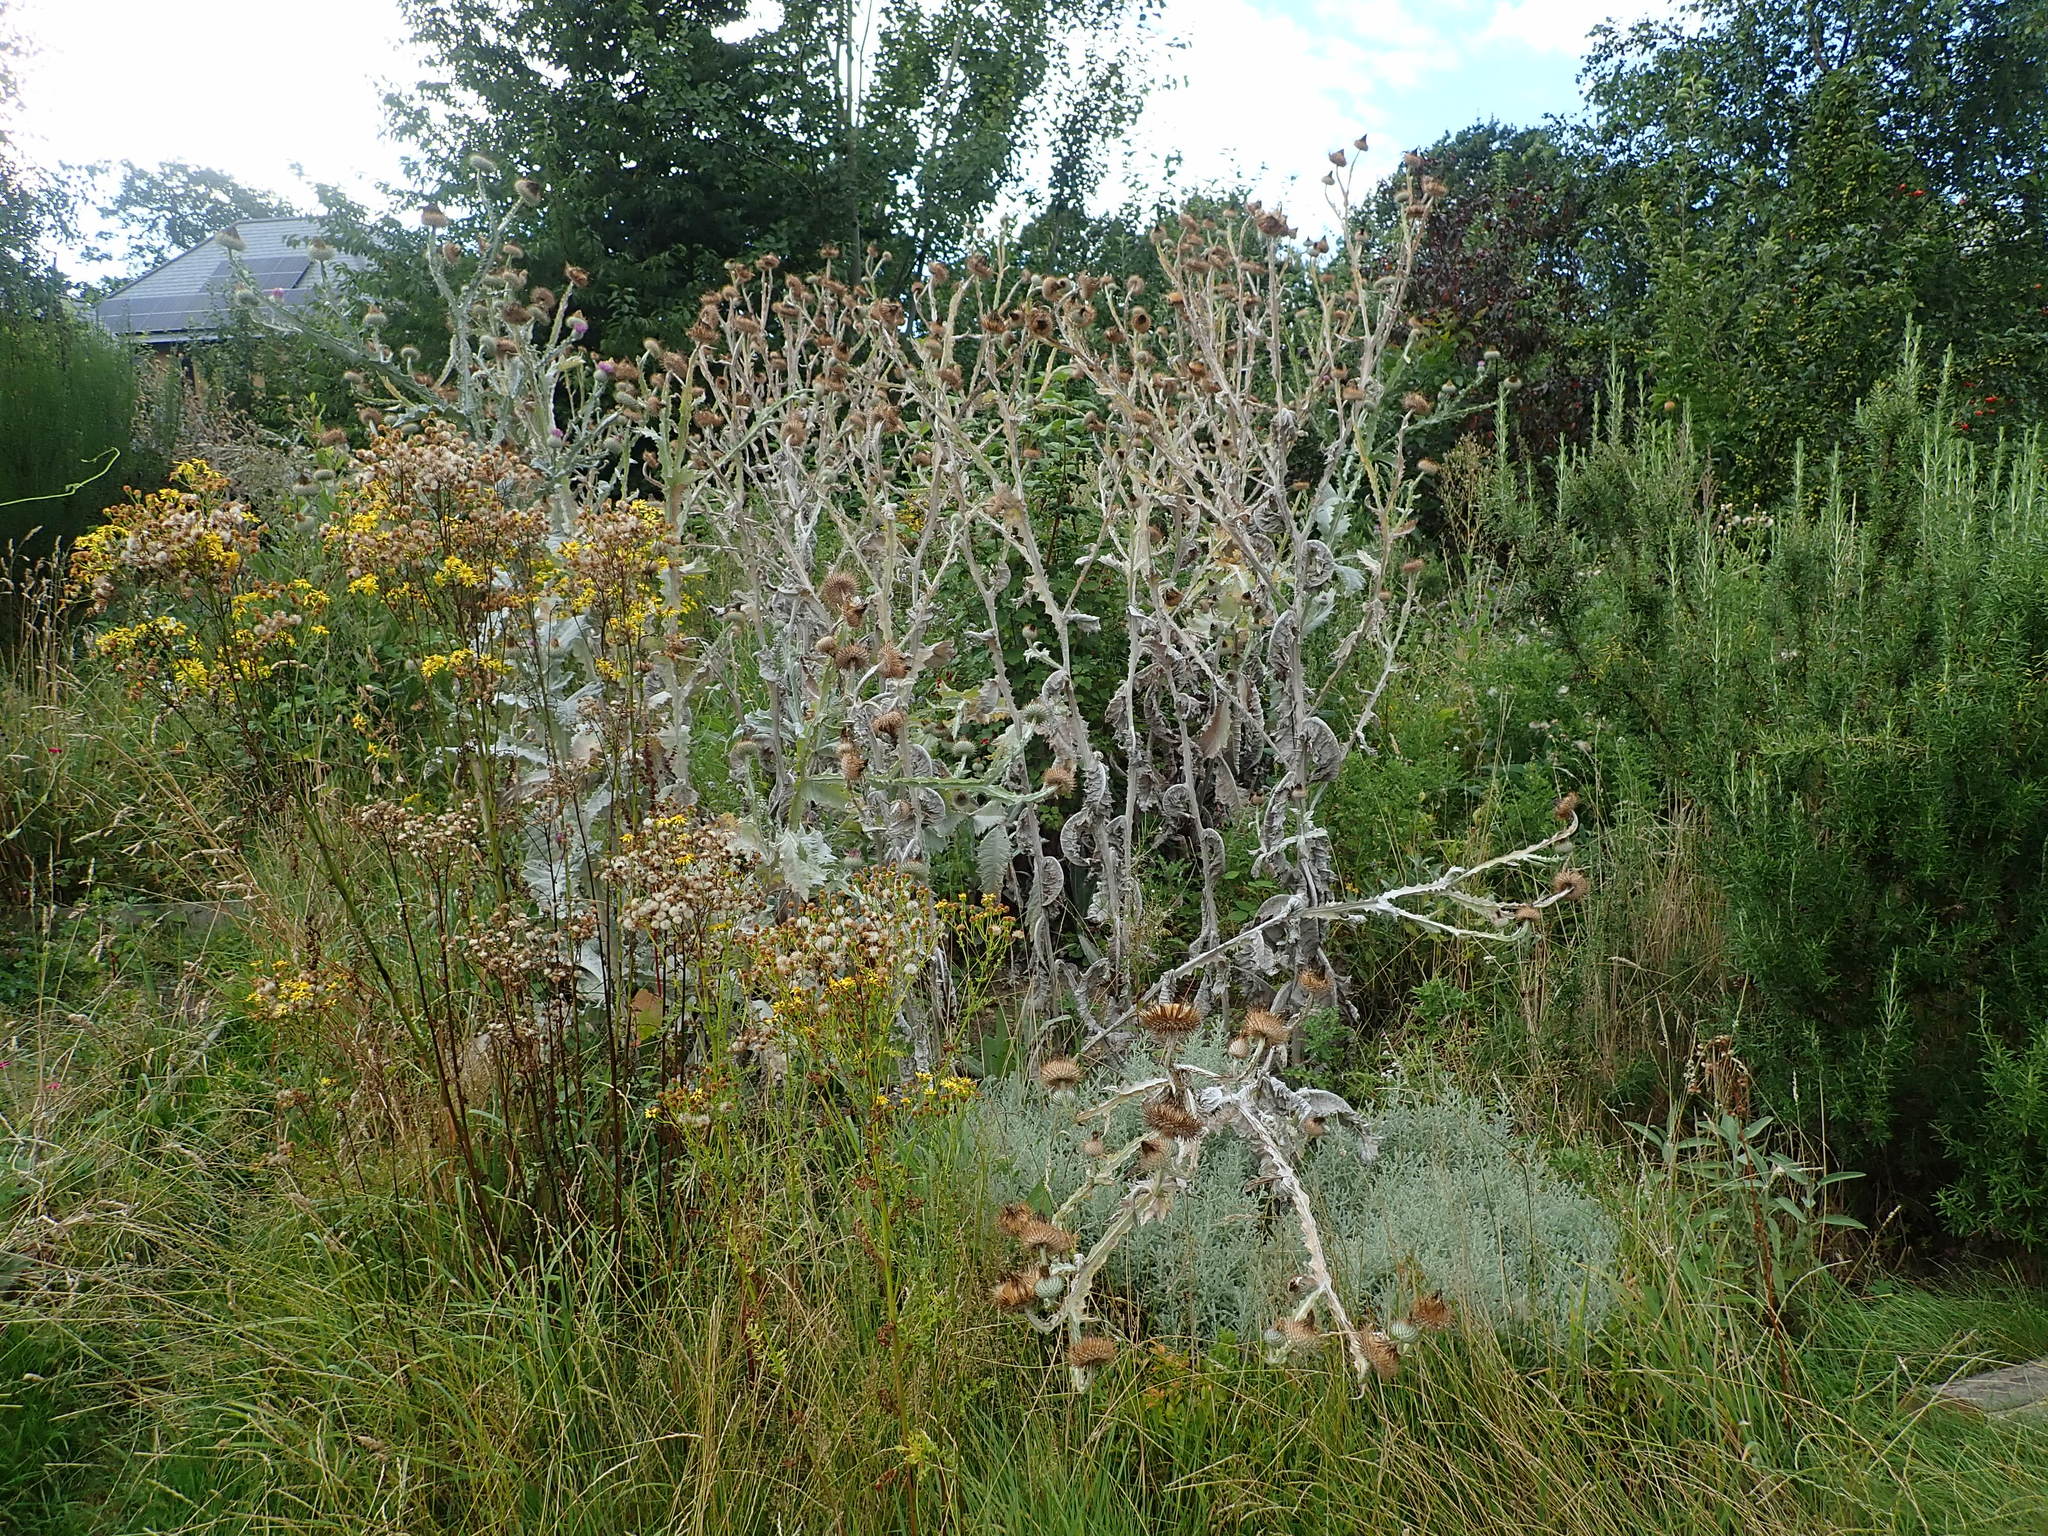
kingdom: Plantae
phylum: Tracheophyta
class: Magnoliopsida
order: Asterales
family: Asteraceae
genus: Onopordum
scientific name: Onopordum acanthium
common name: Scotch thistle
